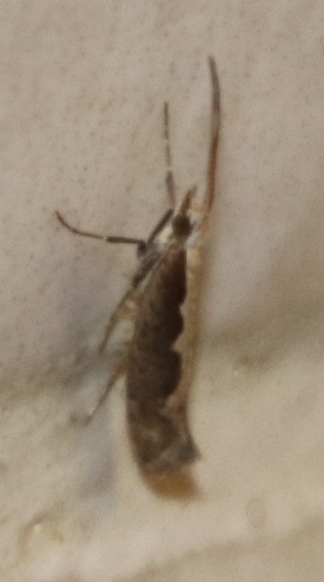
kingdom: Animalia
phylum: Arthropoda
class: Insecta
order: Lepidoptera
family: Plutellidae
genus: Plutella
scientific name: Plutella xylostella
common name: Diamond-back moth
